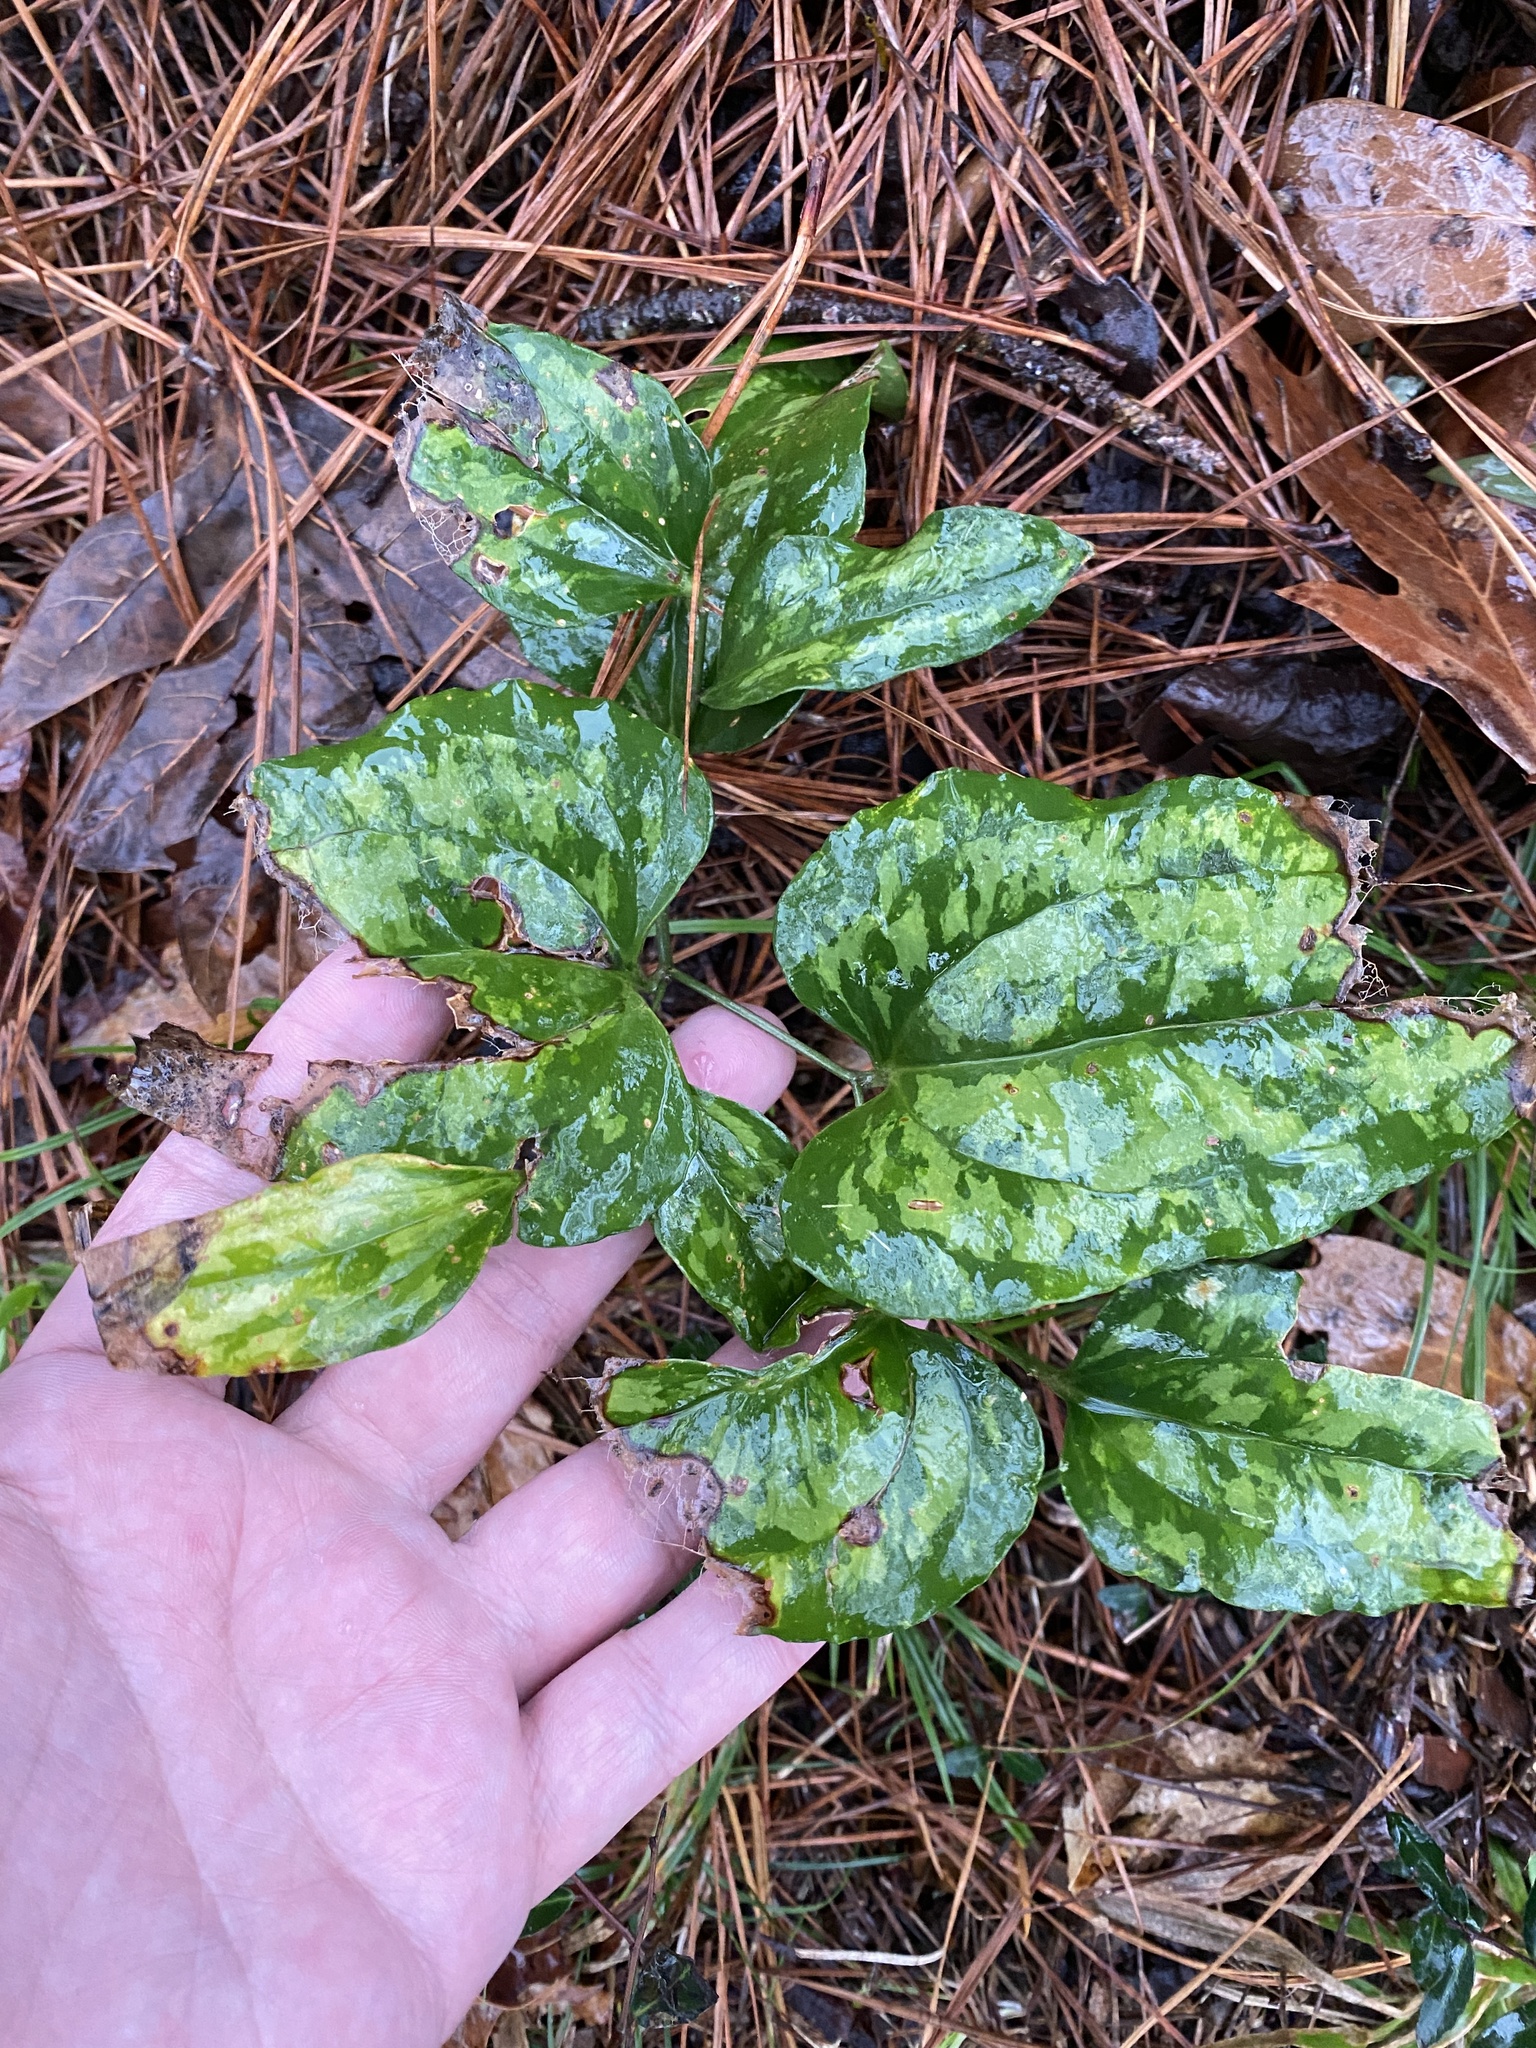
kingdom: Plantae
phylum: Tracheophyta
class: Liliopsida
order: Liliales
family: Smilacaceae
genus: Smilax
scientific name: Smilax maritima
